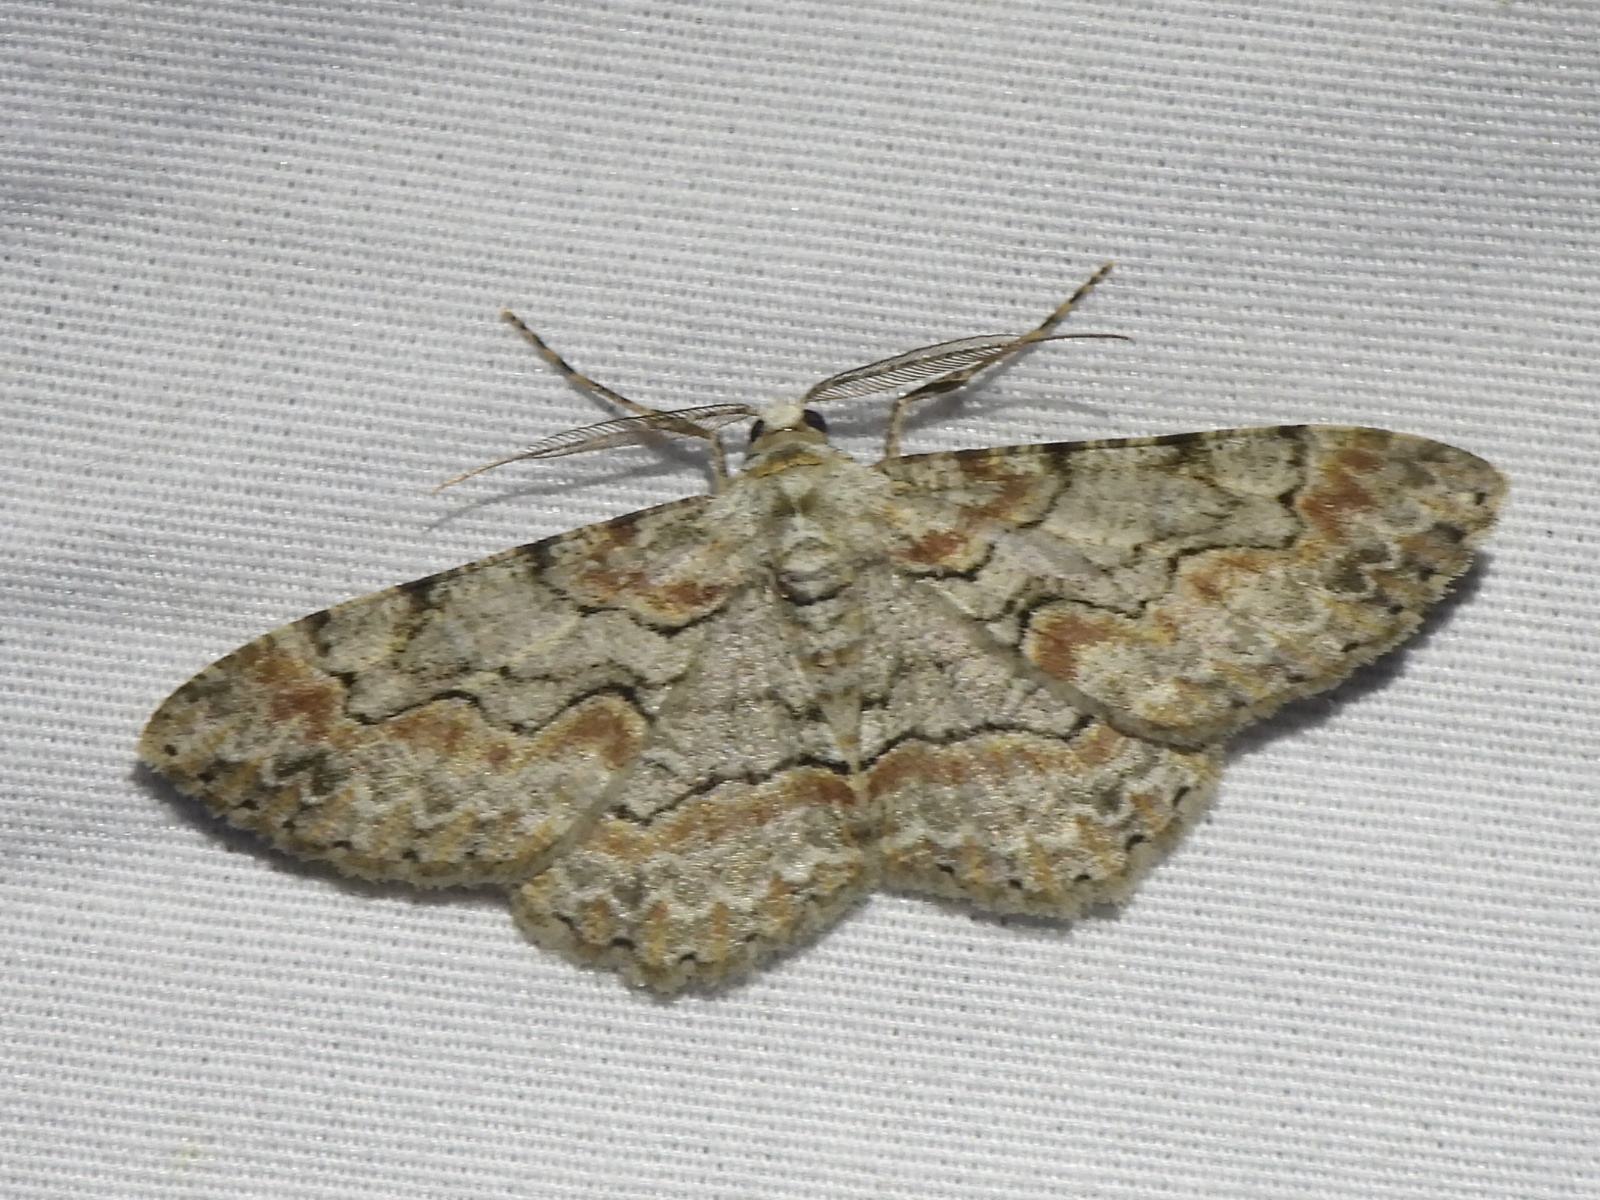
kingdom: Animalia
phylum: Arthropoda
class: Insecta
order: Lepidoptera
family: Geometridae
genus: Iridopsis
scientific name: Iridopsis defectaria
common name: Brown-shaded gray
